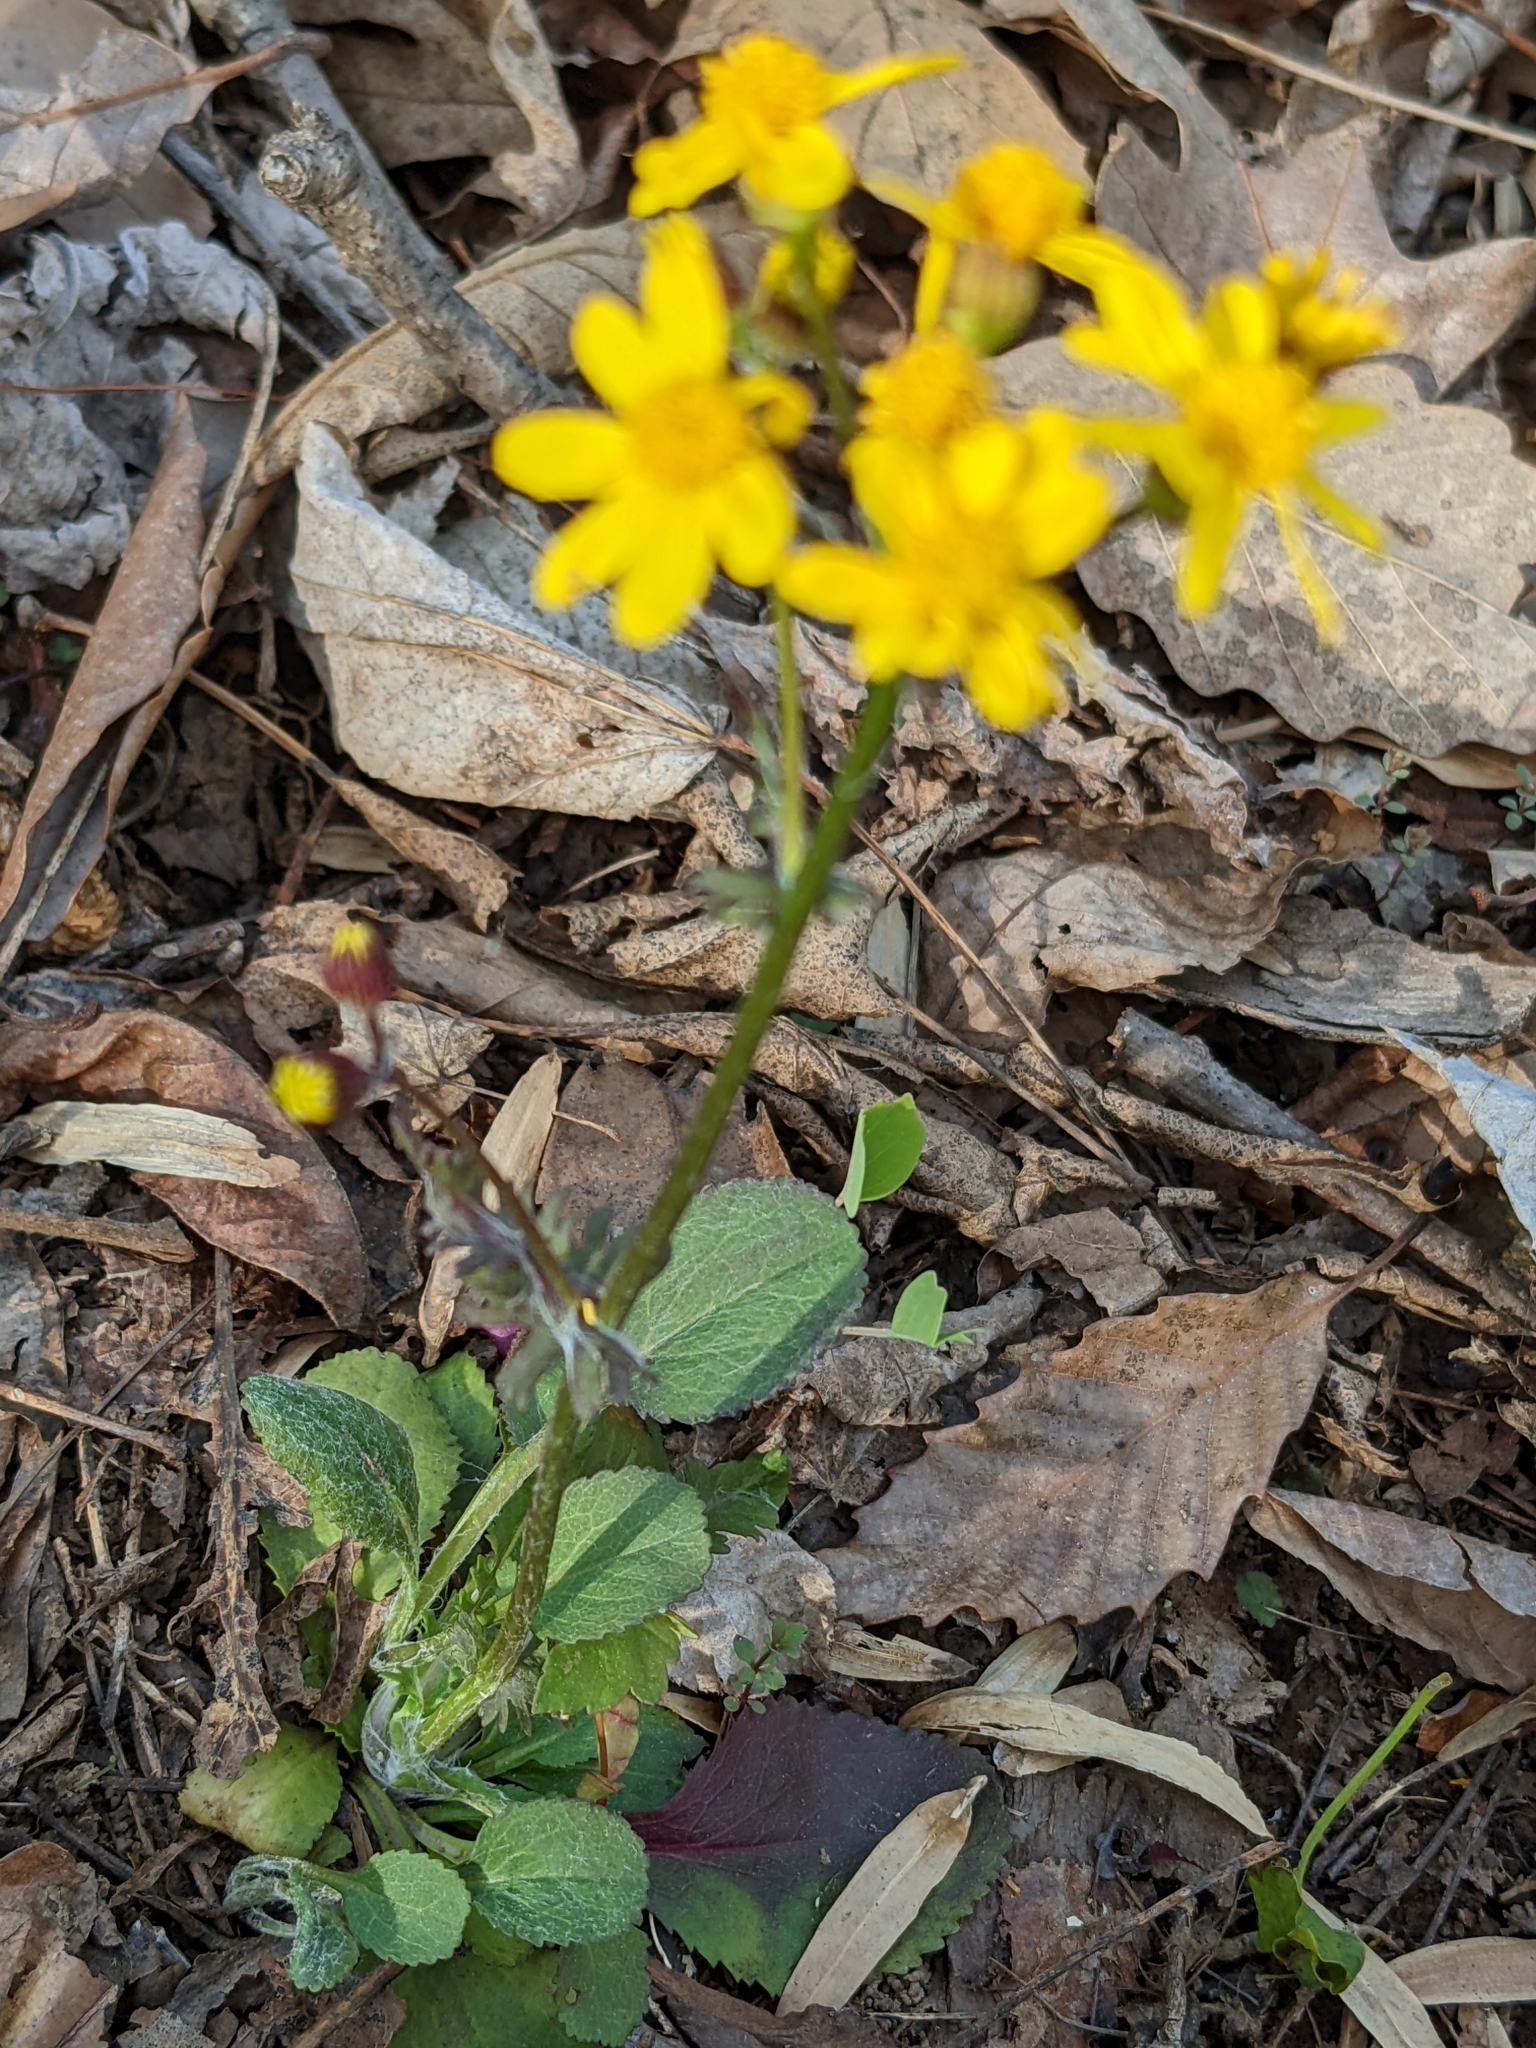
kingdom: Plantae
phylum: Tracheophyta
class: Magnoliopsida
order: Asterales
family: Asteraceae
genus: Packera
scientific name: Packera obovata
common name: Round-leaf ragwort
